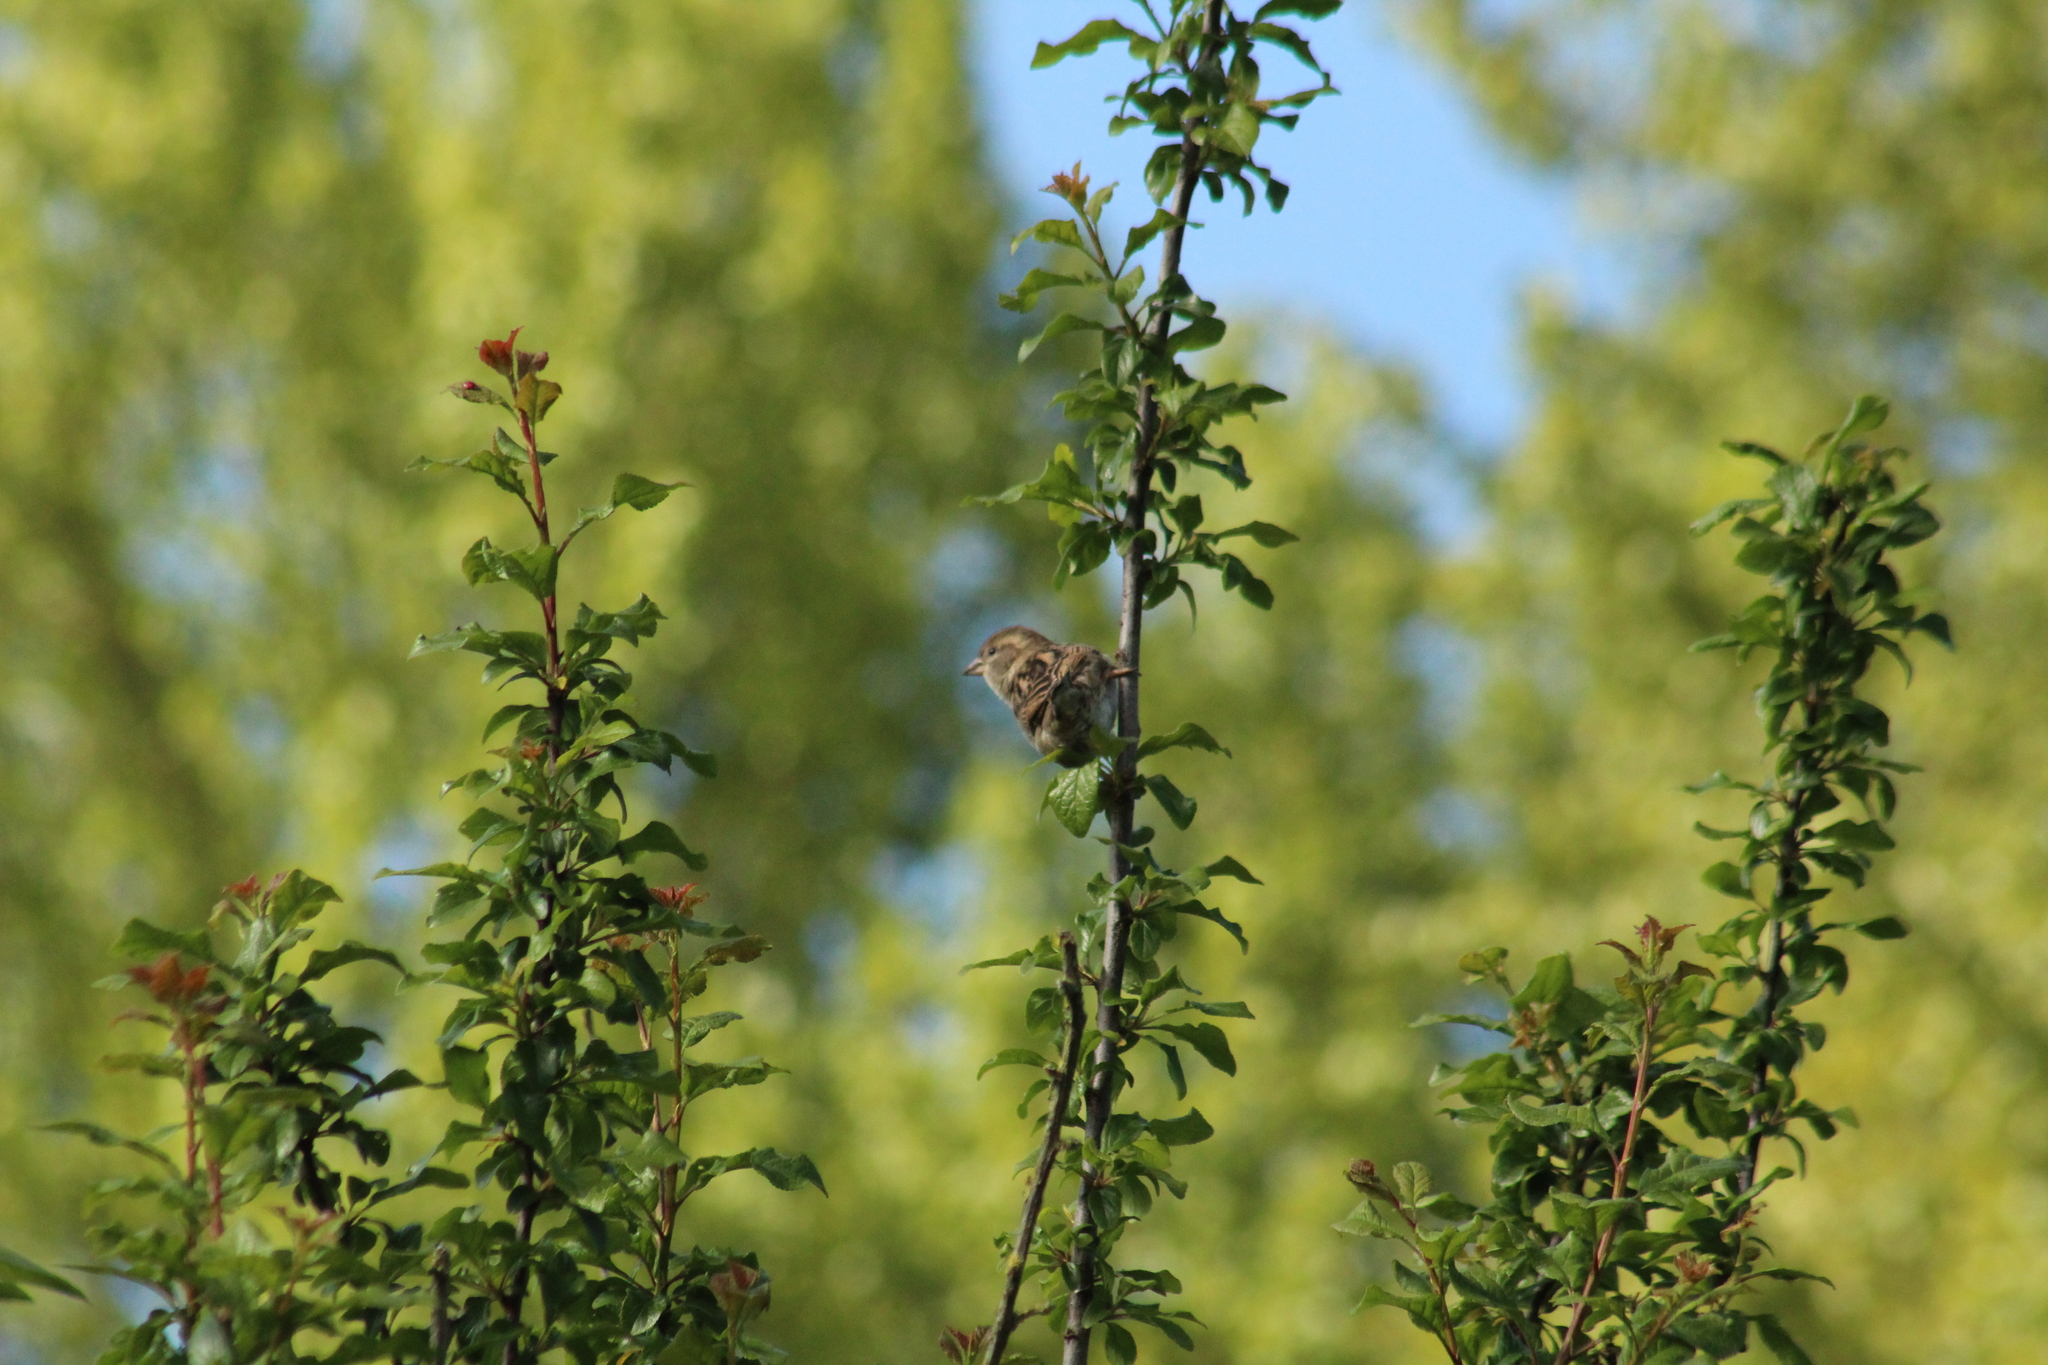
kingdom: Animalia
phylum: Chordata
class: Aves
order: Passeriformes
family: Passeridae
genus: Passer
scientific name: Passer domesticus
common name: House sparrow
